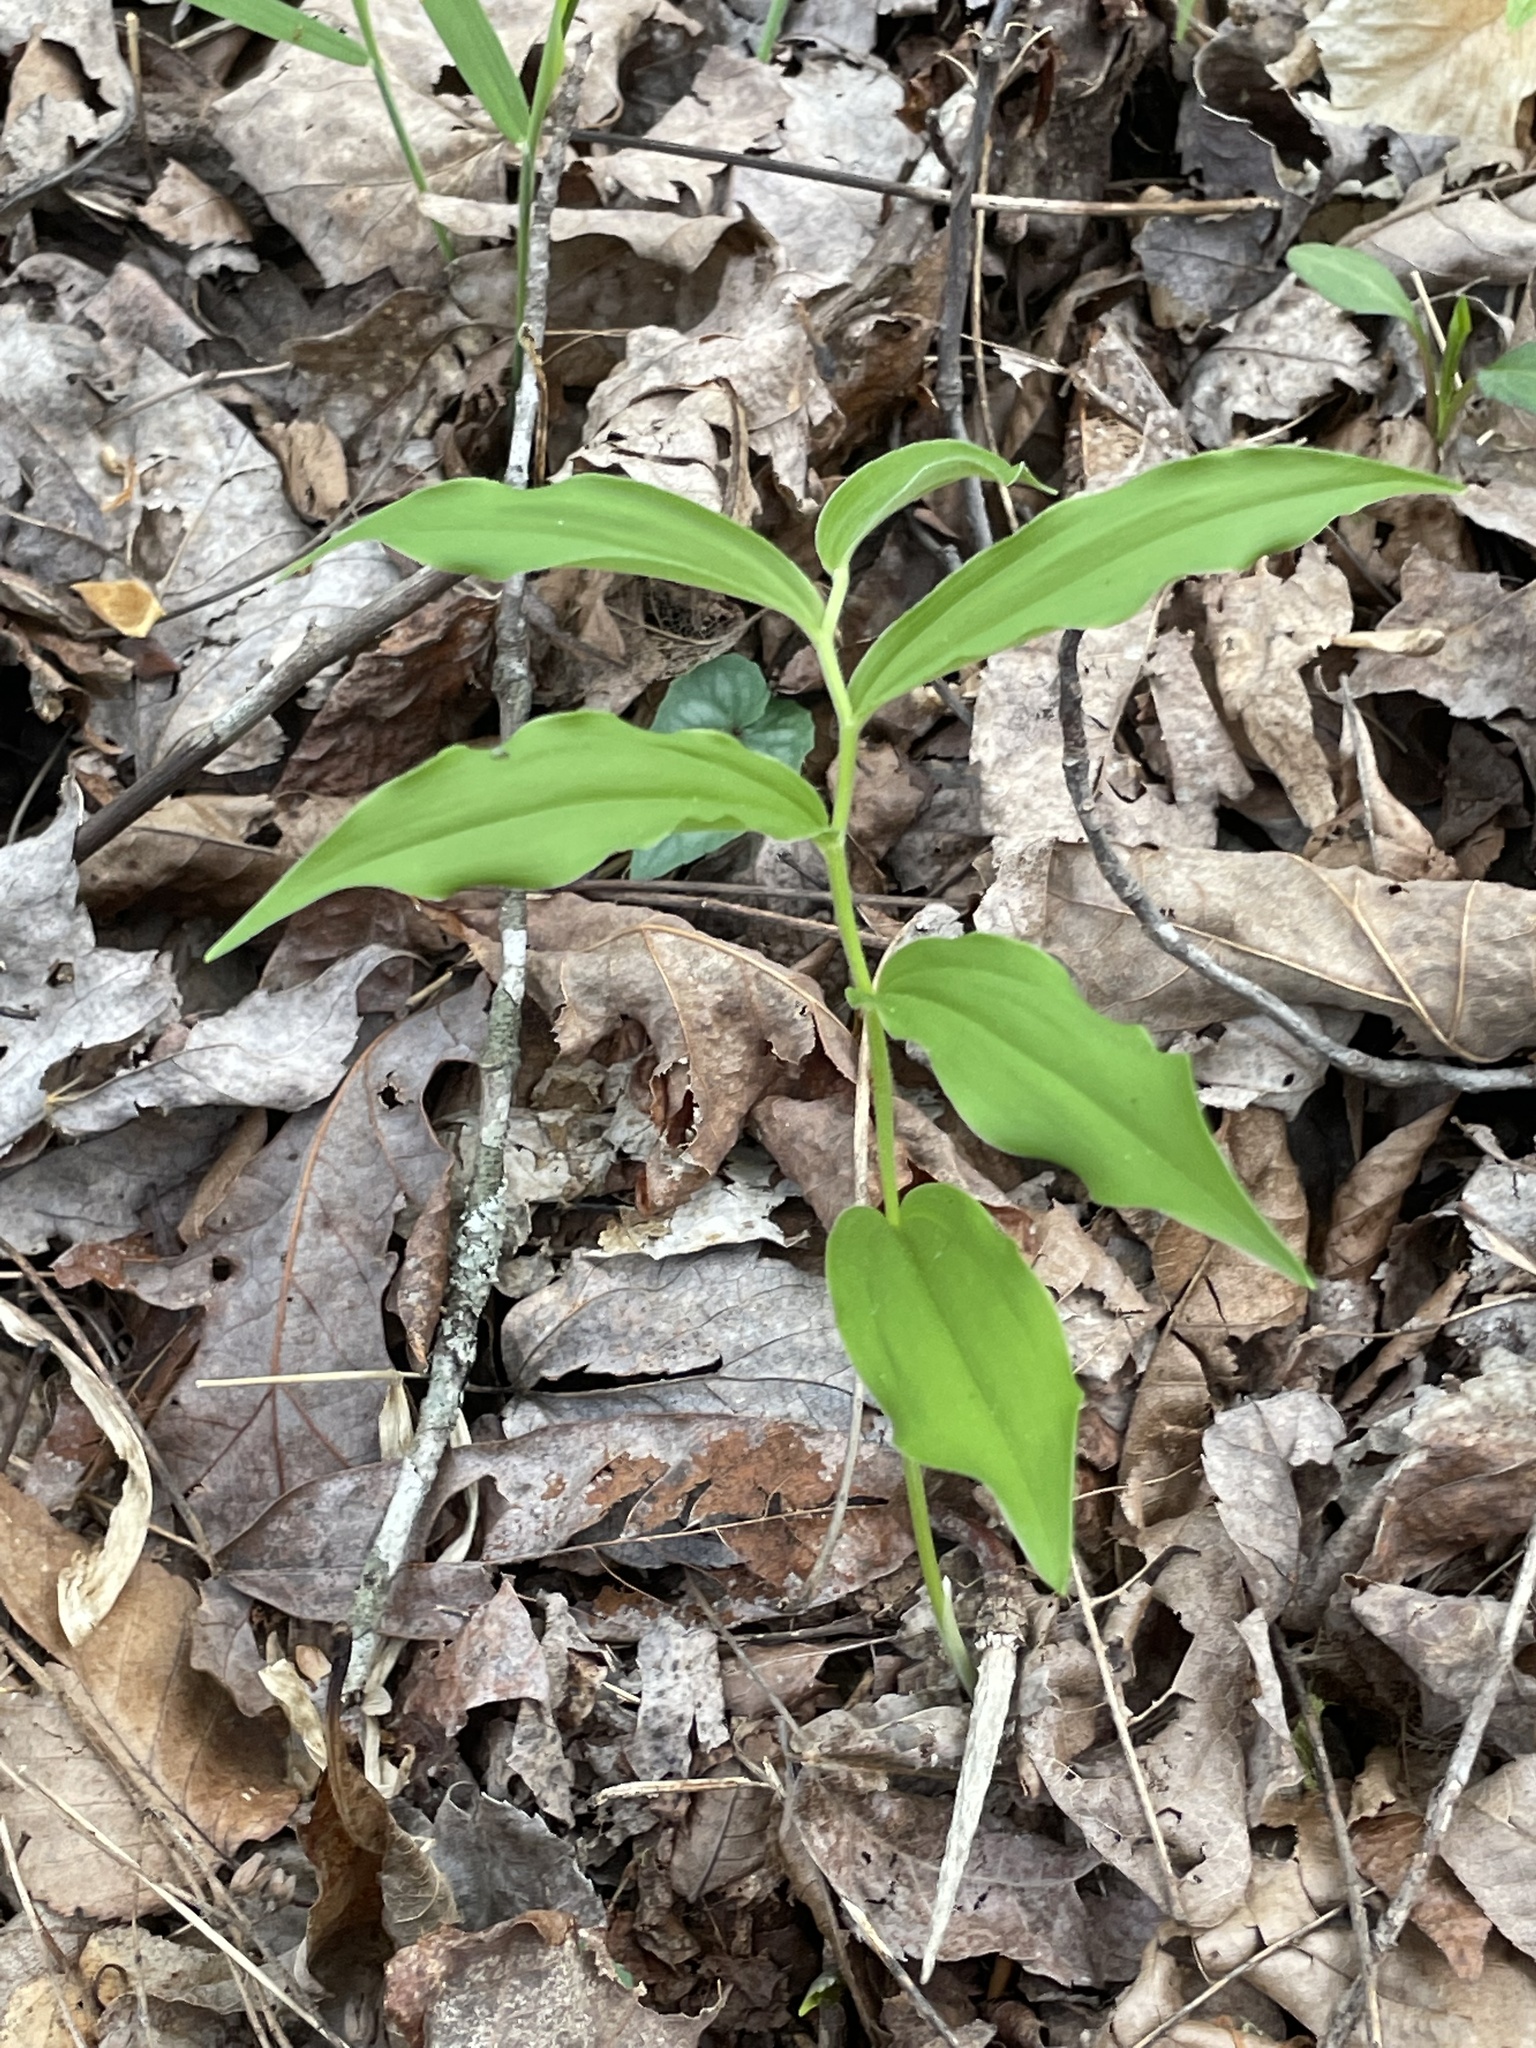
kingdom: Plantae
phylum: Tracheophyta
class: Liliopsida
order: Asparagales
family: Asparagaceae
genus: Maianthemum
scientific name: Maianthemum racemosum
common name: False spikenard
